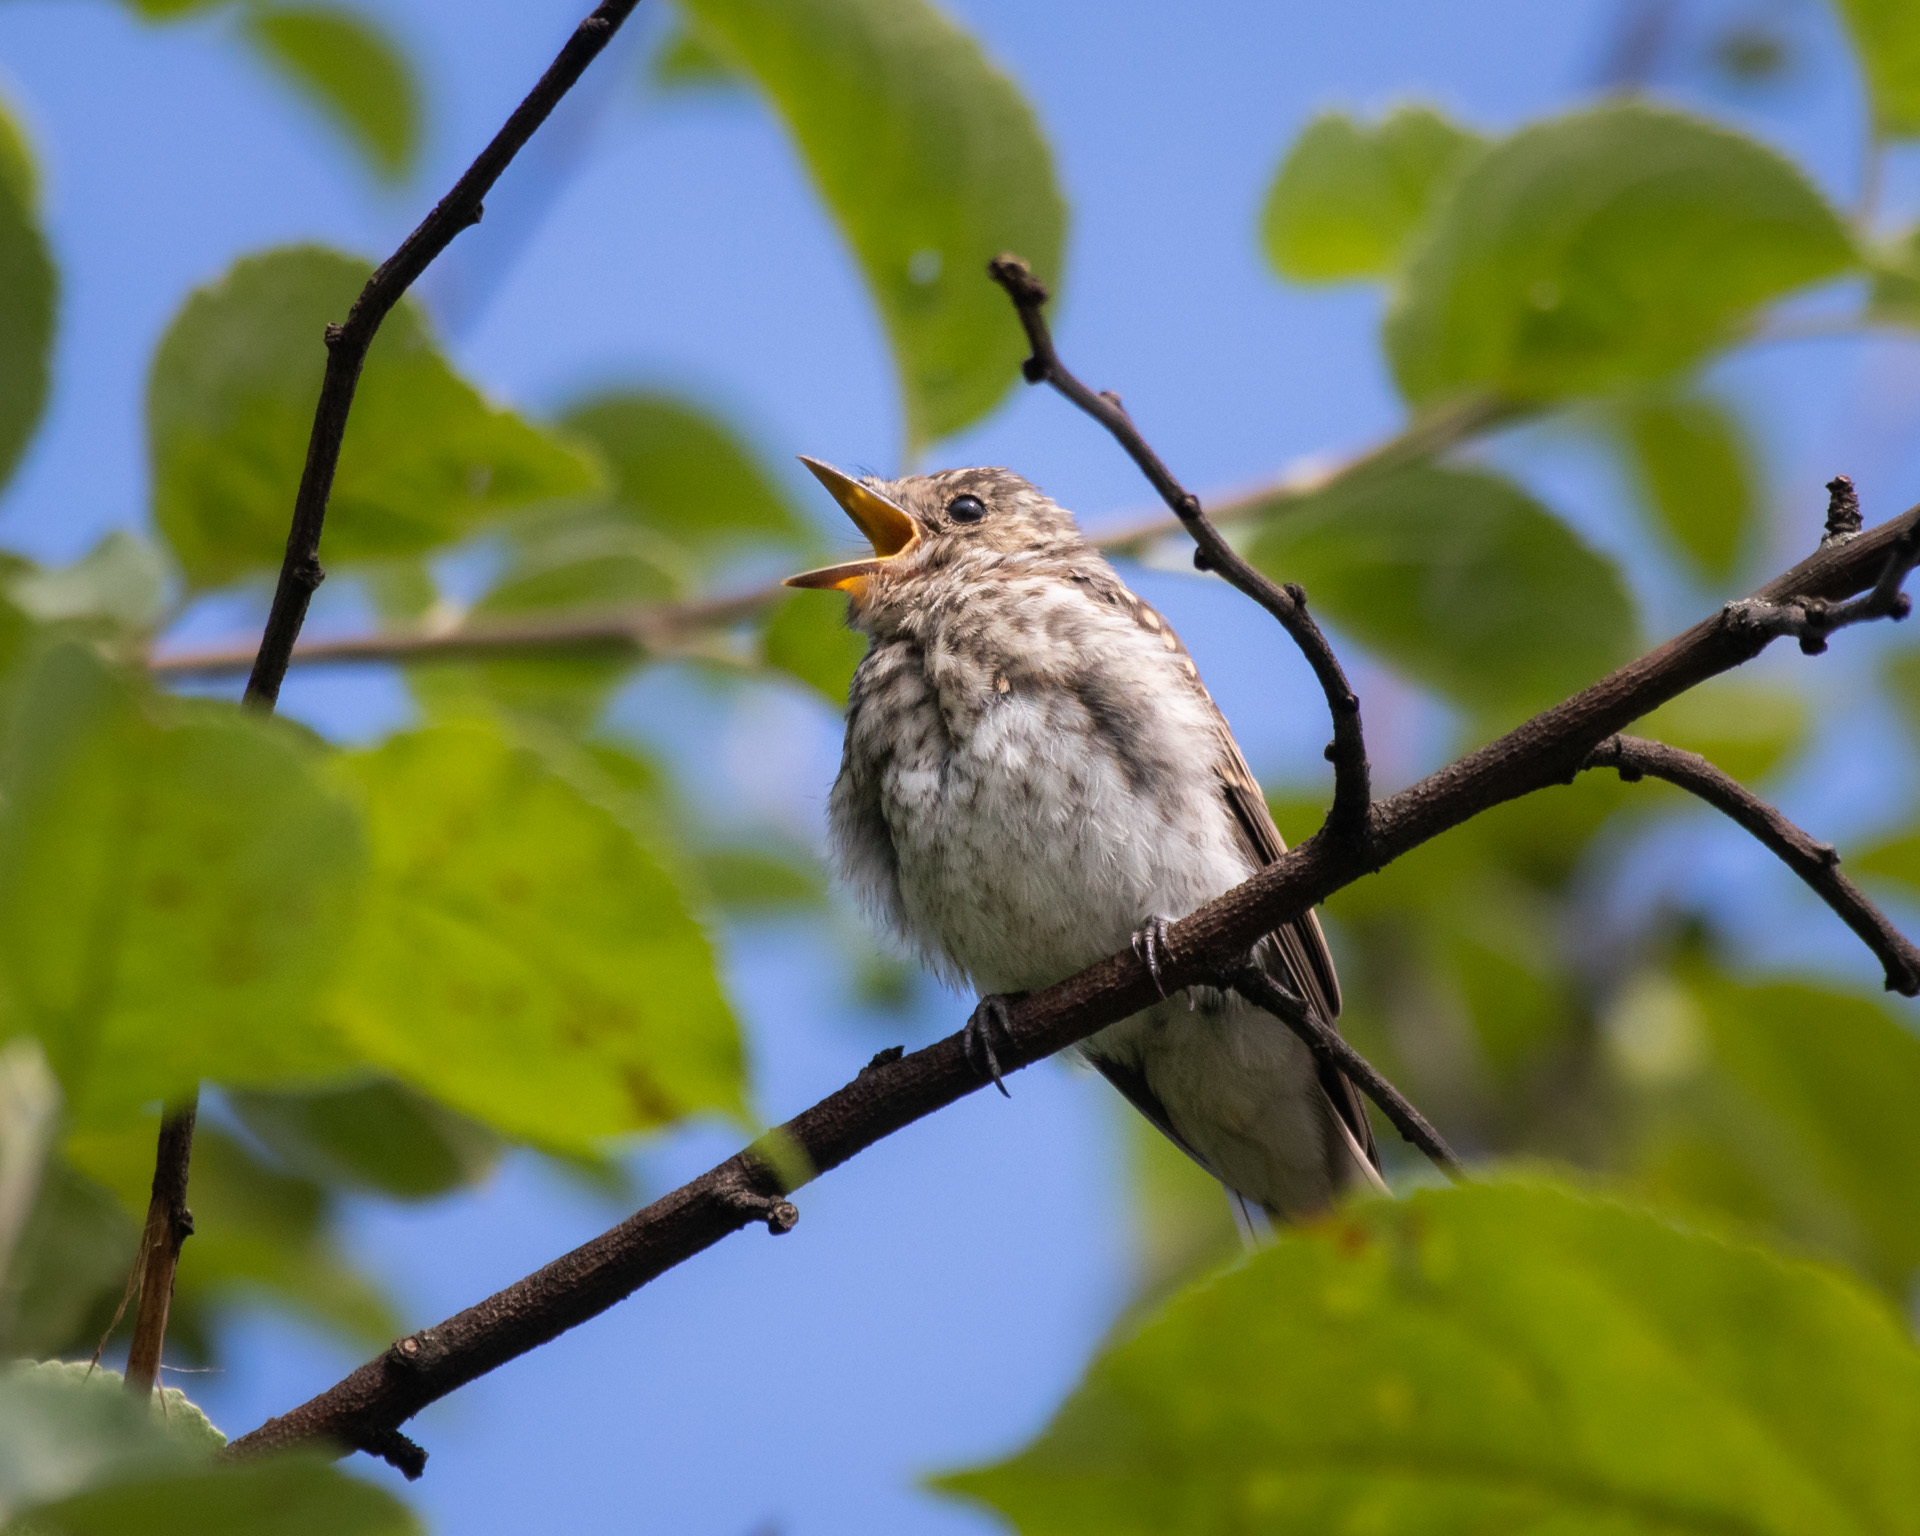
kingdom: Animalia
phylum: Chordata
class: Aves
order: Passeriformes
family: Muscicapidae
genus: Muscicapa
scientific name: Muscicapa striata
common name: Spotted flycatcher
